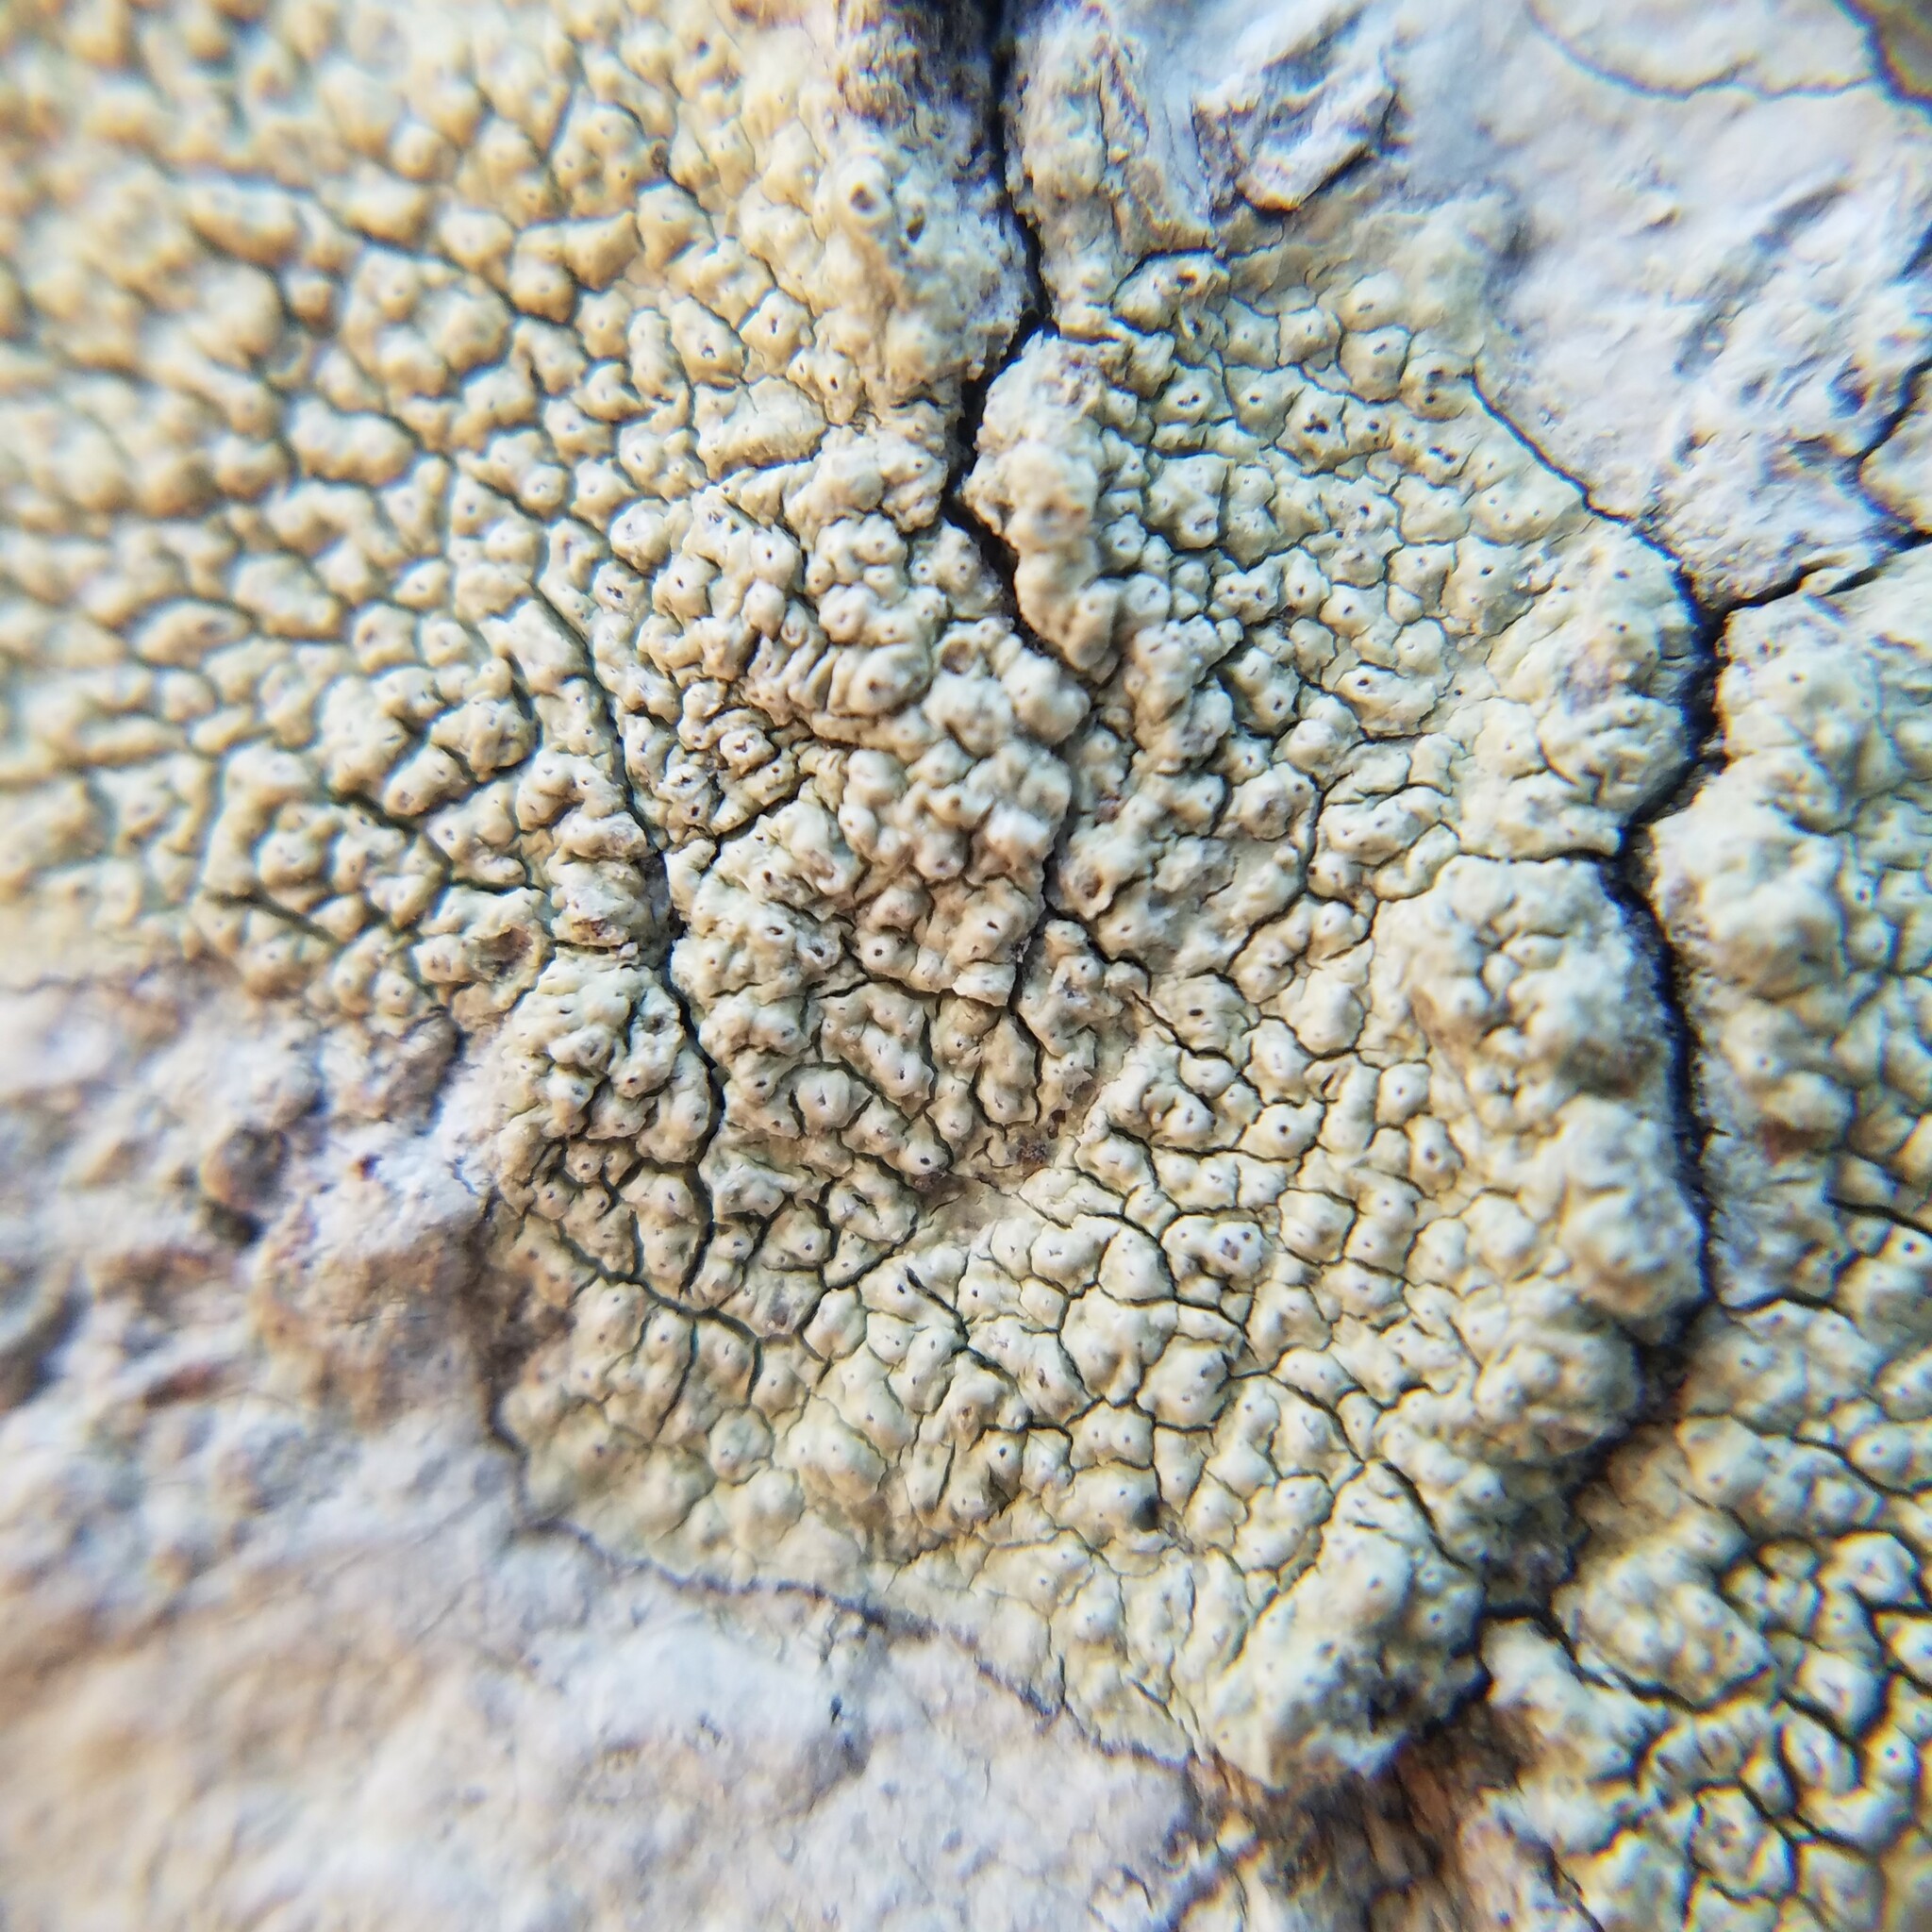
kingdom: Fungi
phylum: Ascomycota
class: Lecanoromycetes
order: Pertusariales
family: Pertusariaceae
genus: Pertusaria
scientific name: Pertusaria
